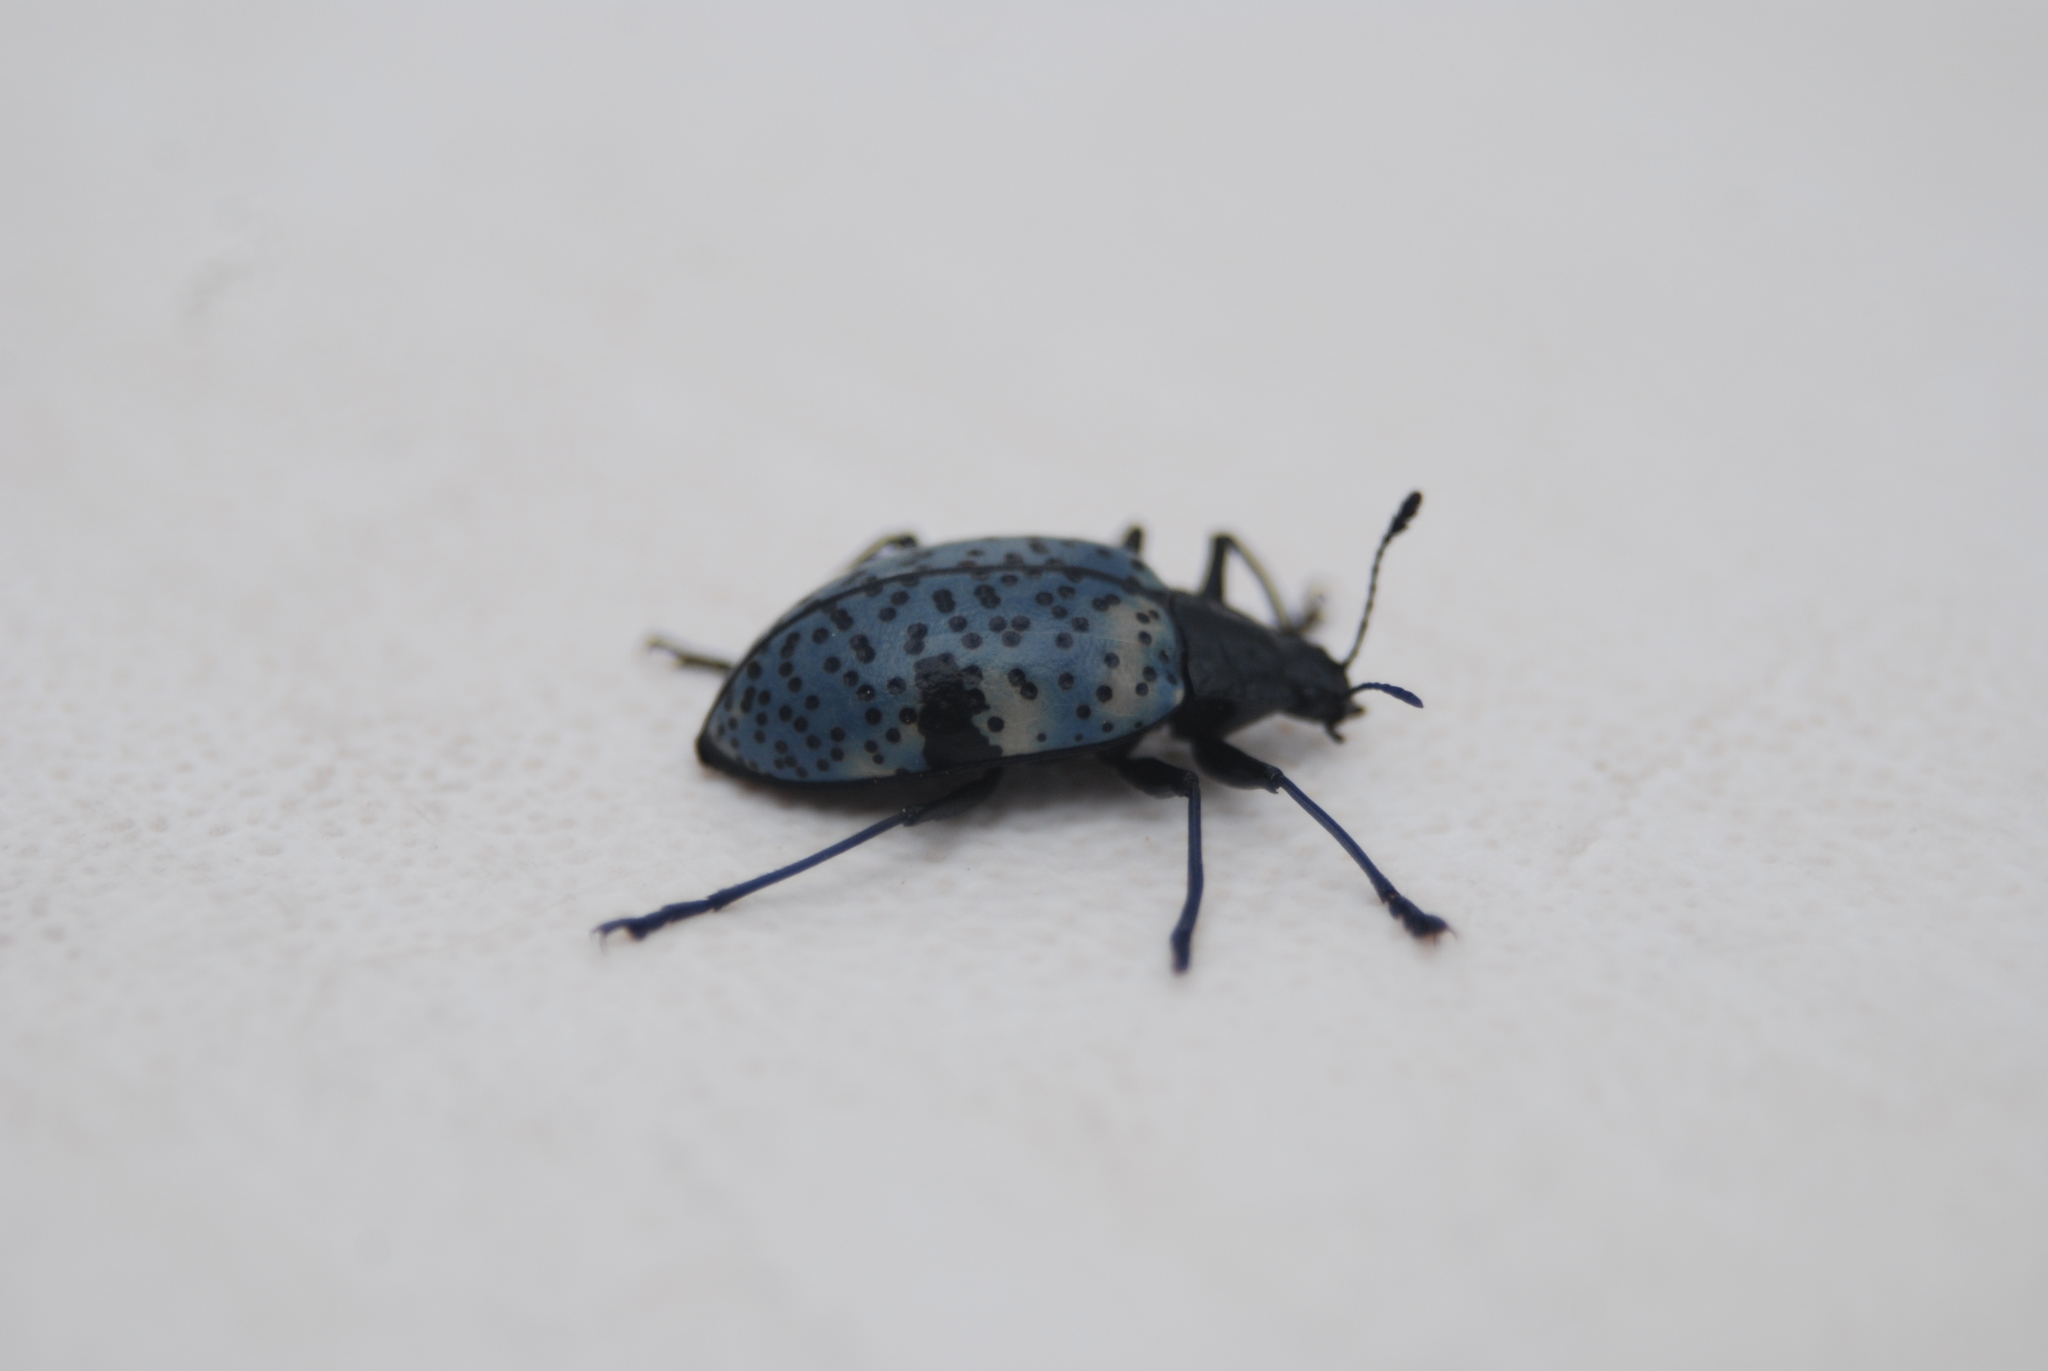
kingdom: Animalia
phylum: Arthropoda
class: Insecta
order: Coleoptera
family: Erotylidae
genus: Gibbifer
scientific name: Gibbifer californicus
